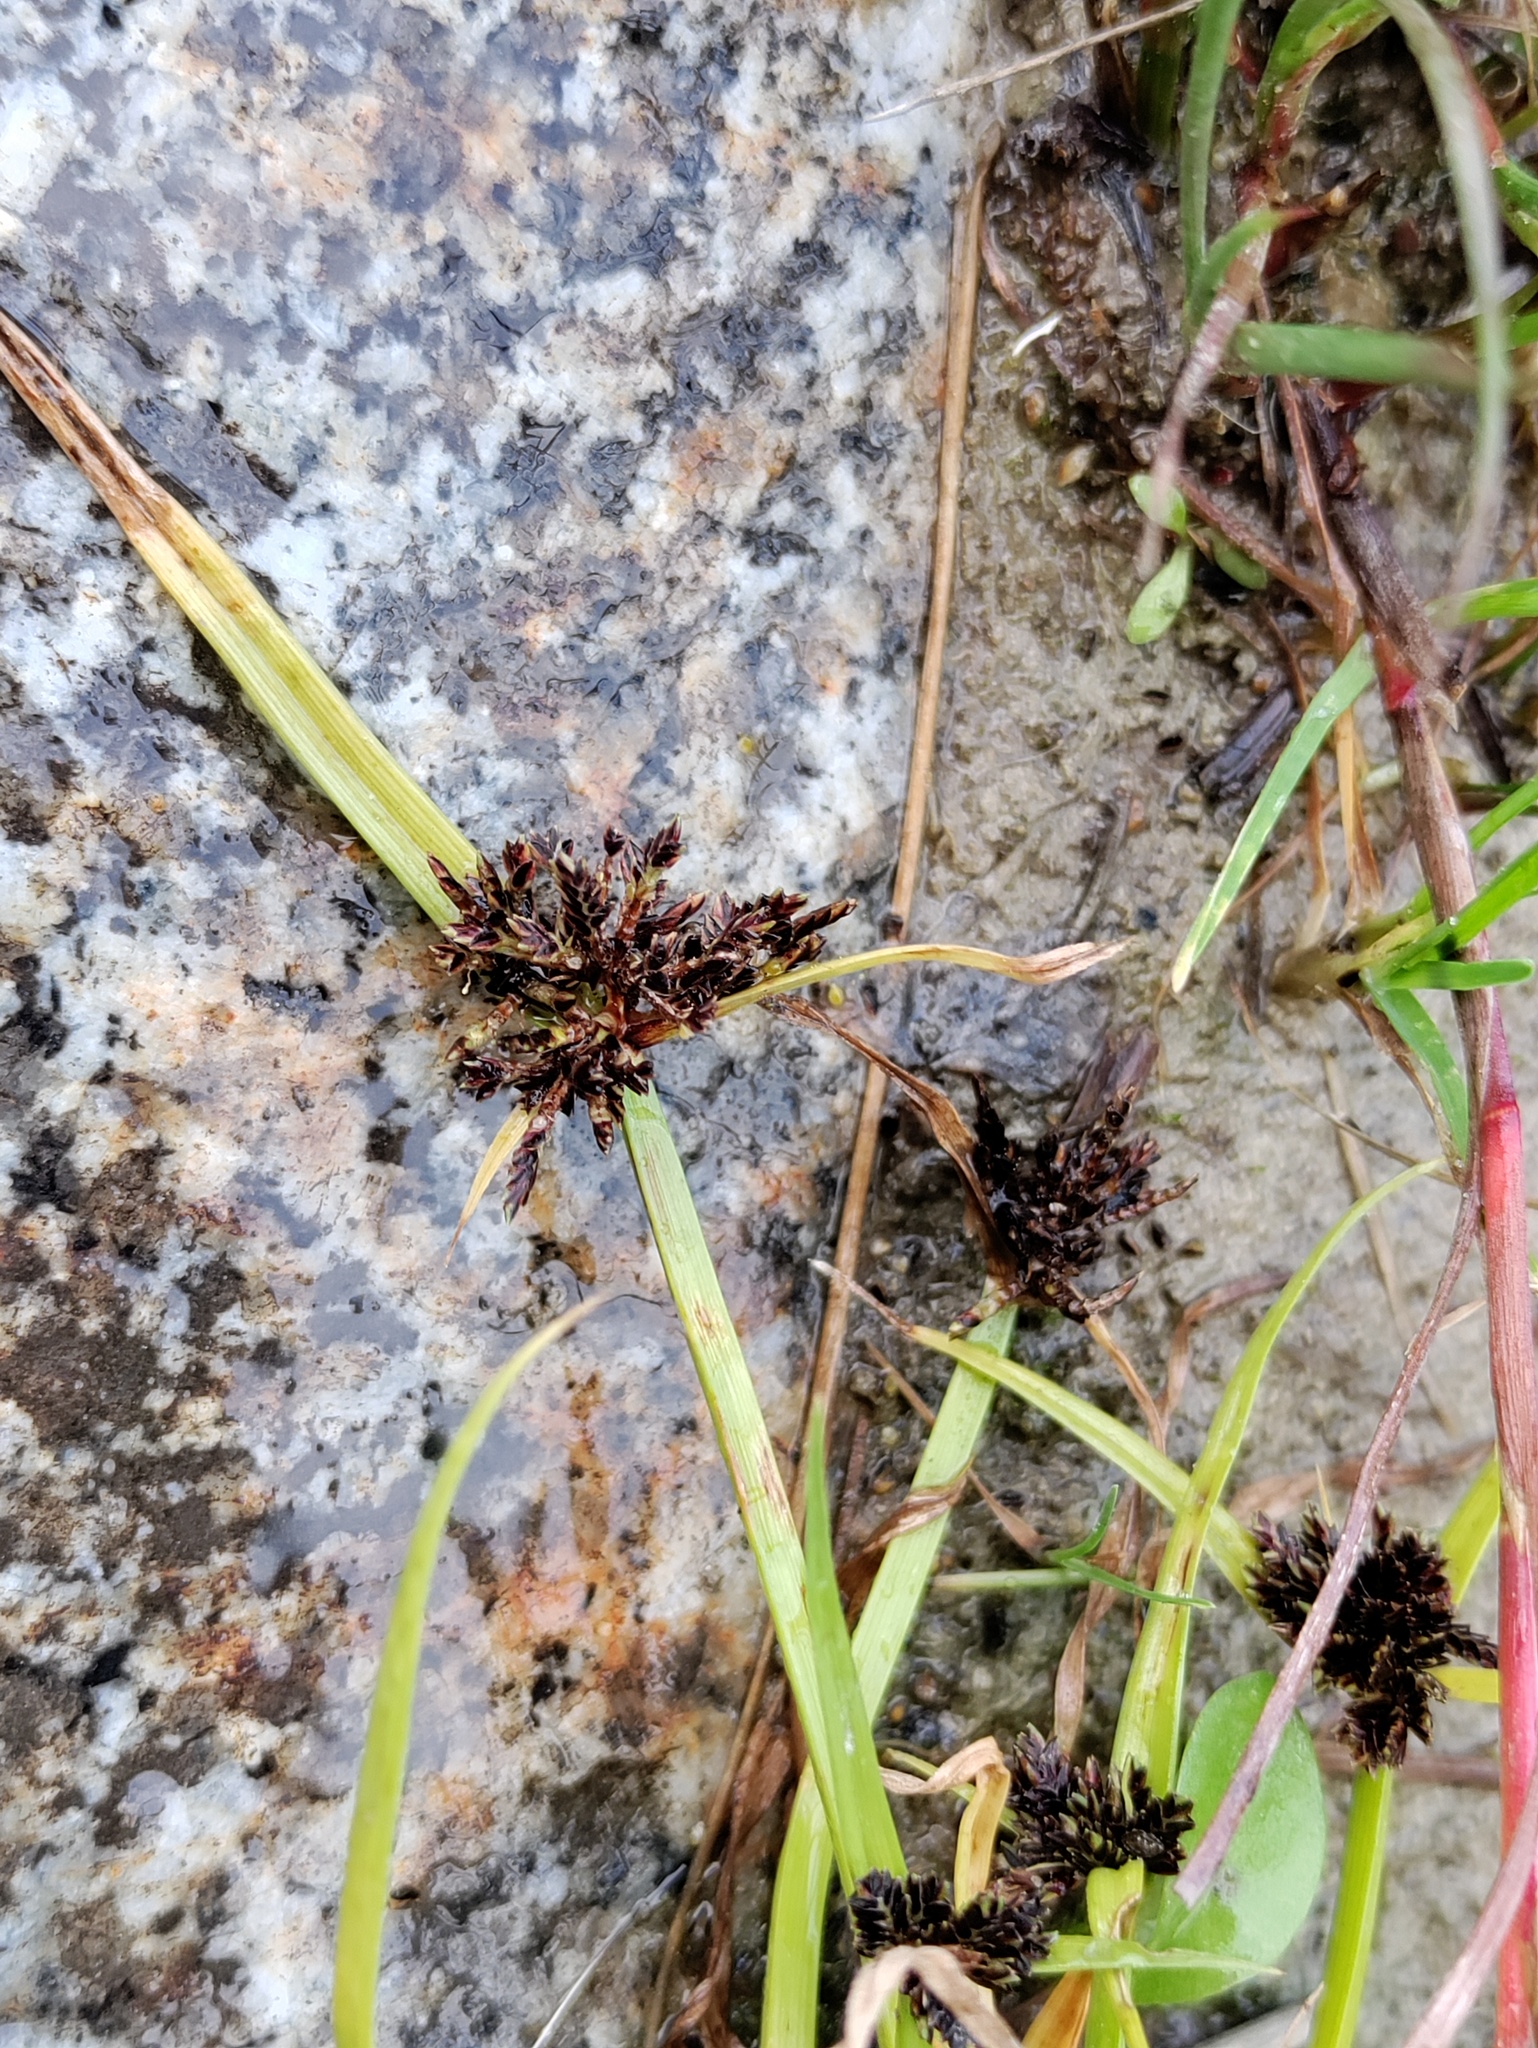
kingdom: Plantae
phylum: Tracheophyta
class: Liliopsida
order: Poales
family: Cyperaceae
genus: Cyperus
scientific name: Cyperus fuscus
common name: Brown galingale
